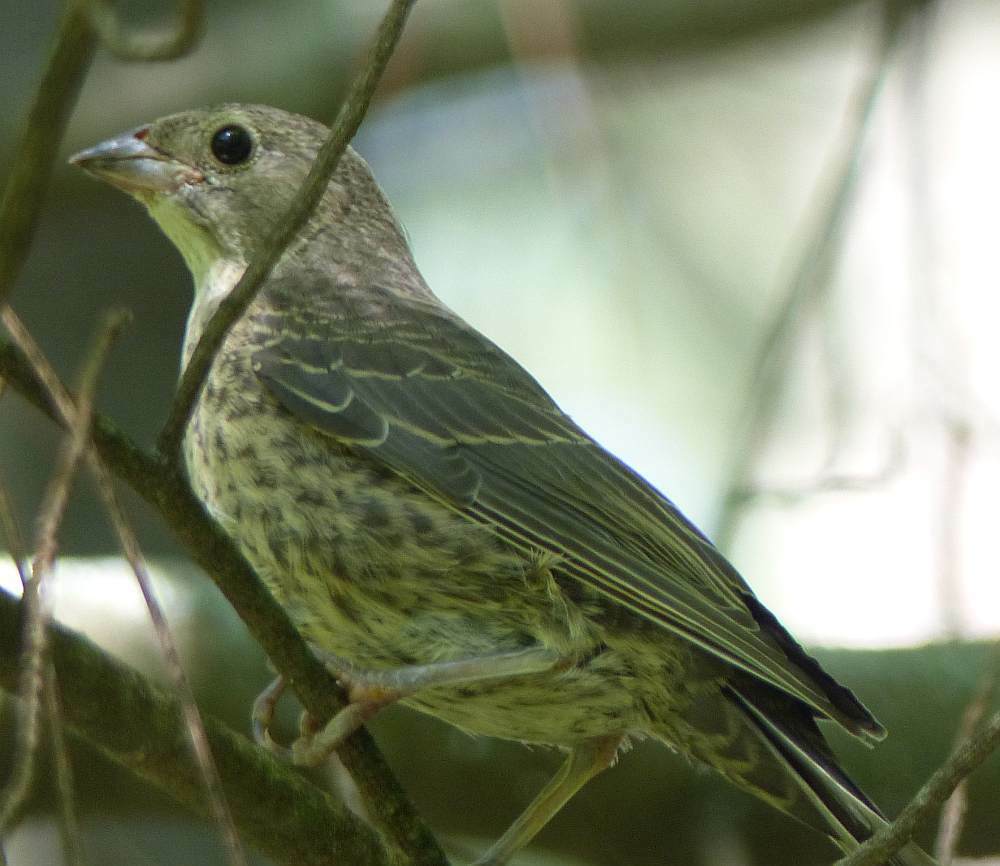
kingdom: Animalia
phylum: Chordata
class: Aves
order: Passeriformes
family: Icteridae
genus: Molothrus
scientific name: Molothrus ater
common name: Brown-headed cowbird
